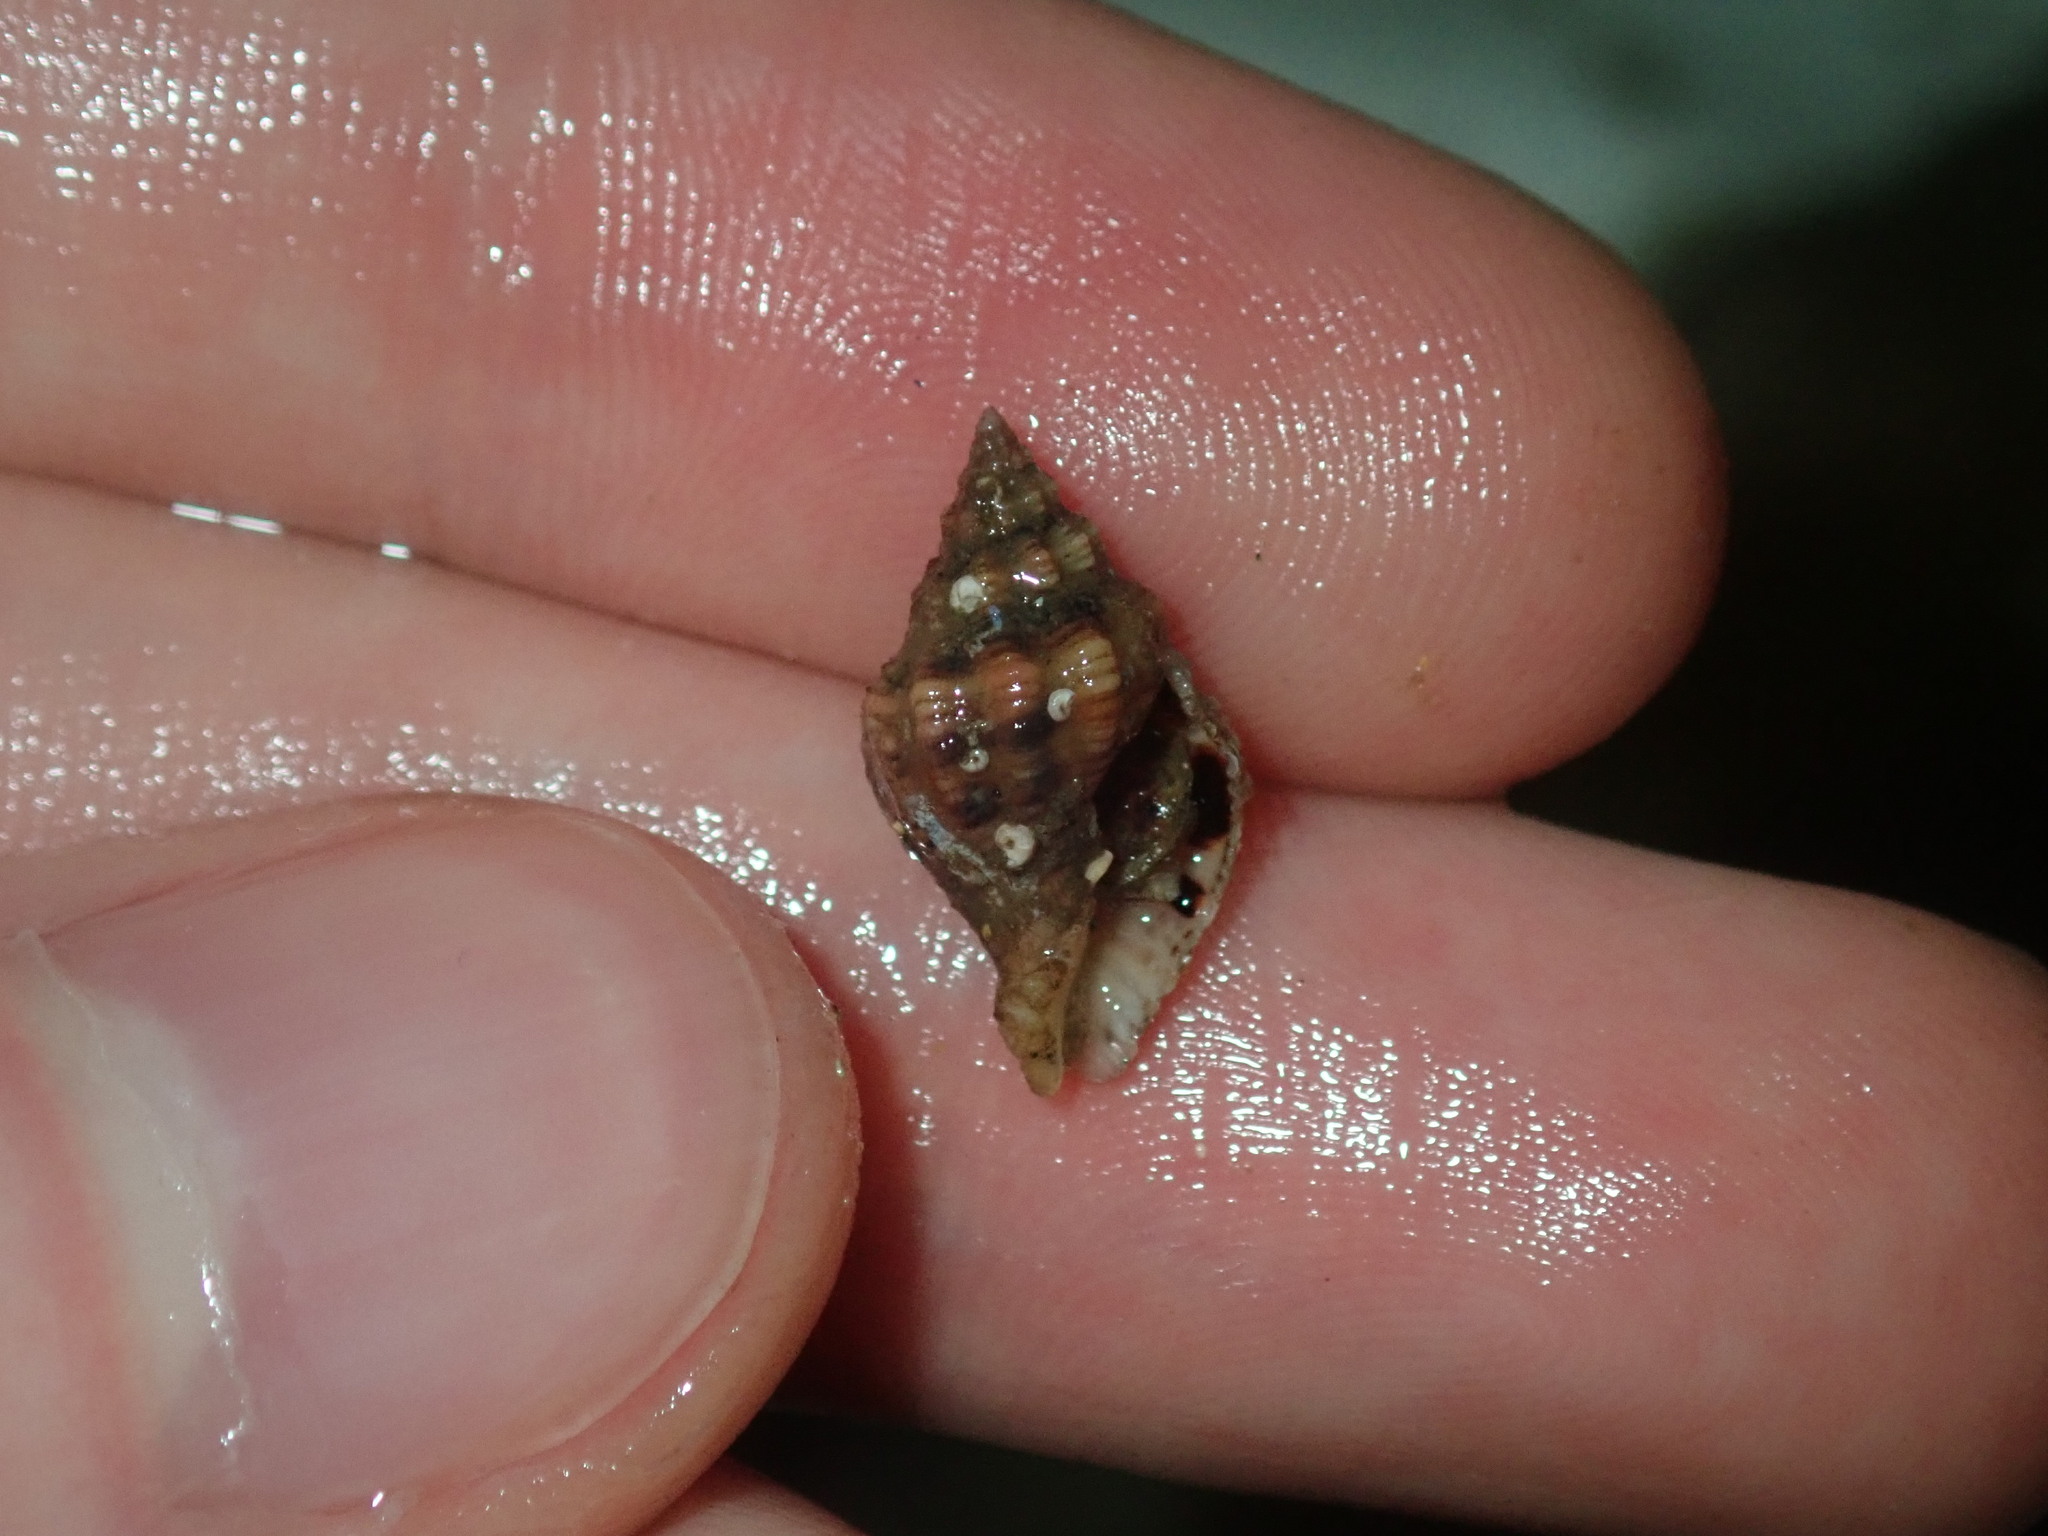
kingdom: Animalia
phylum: Mollusca
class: Gastropoda
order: Neogastropoda
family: Muricidae
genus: Cronia
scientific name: Cronia aurantiaca
